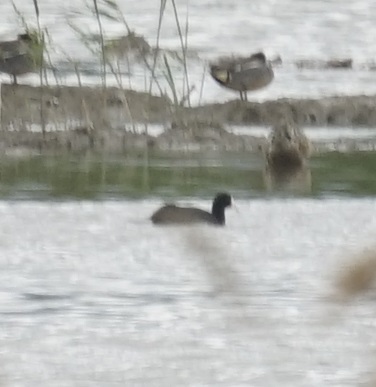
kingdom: Animalia
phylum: Chordata
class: Aves
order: Gruiformes
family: Rallidae
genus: Fulica
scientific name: Fulica atra
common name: Eurasian coot
